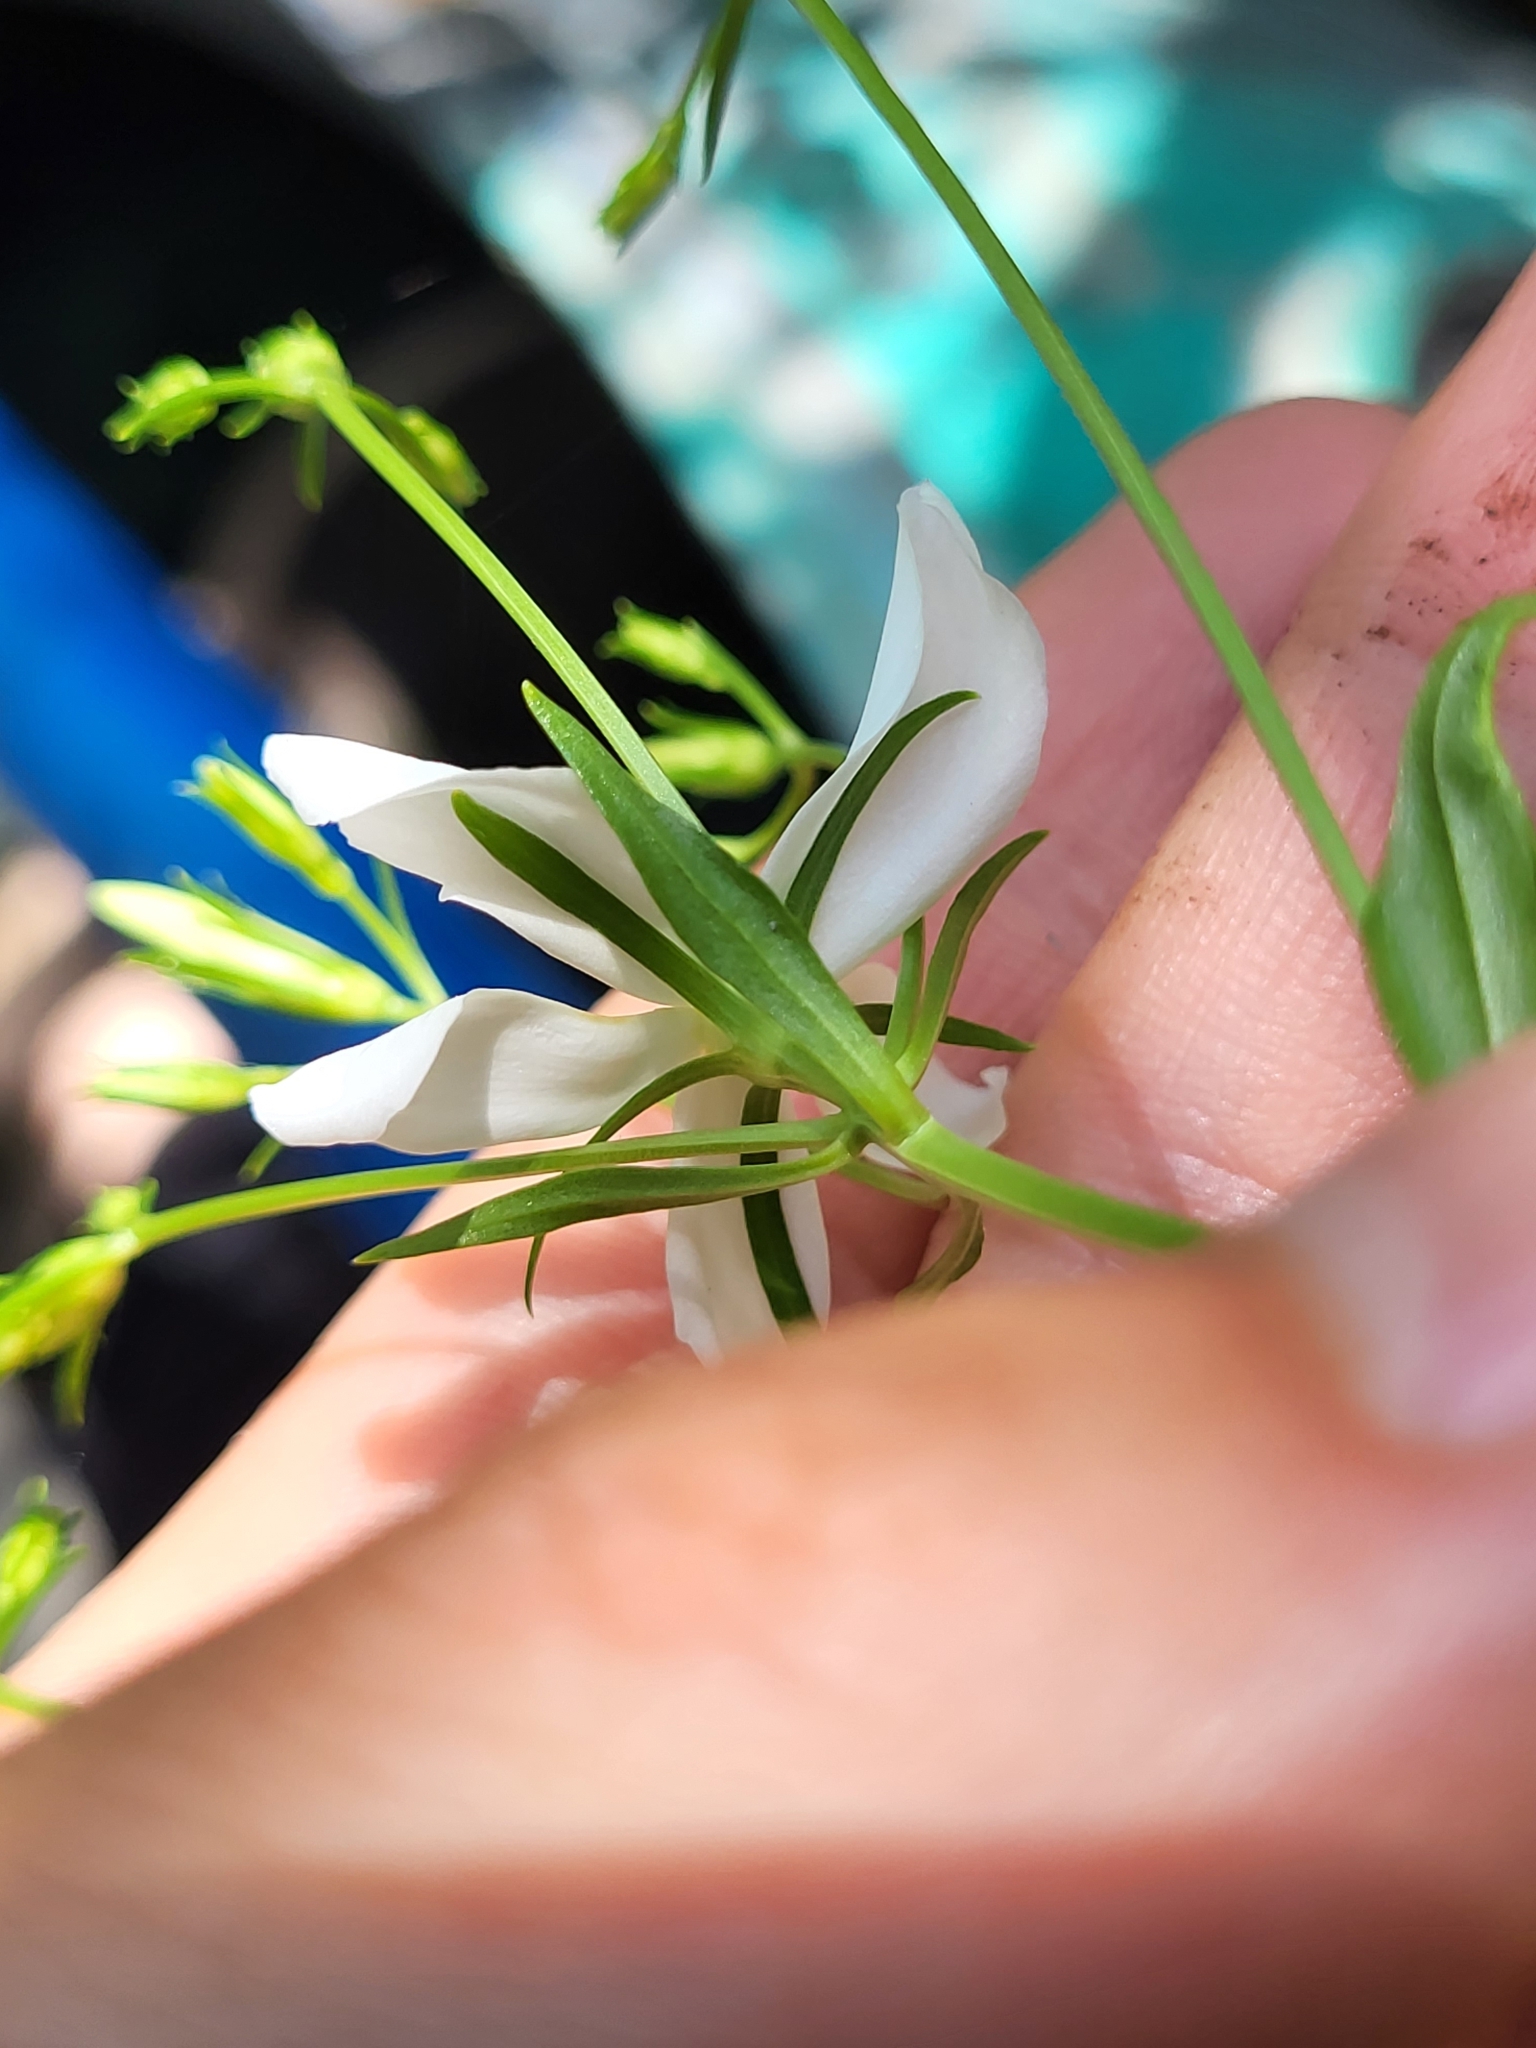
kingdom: Plantae
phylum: Tracheophyta
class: Magnoliopsida
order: Gentianales
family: Gentianaceae
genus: Sabatia
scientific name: Sabatia difformis
